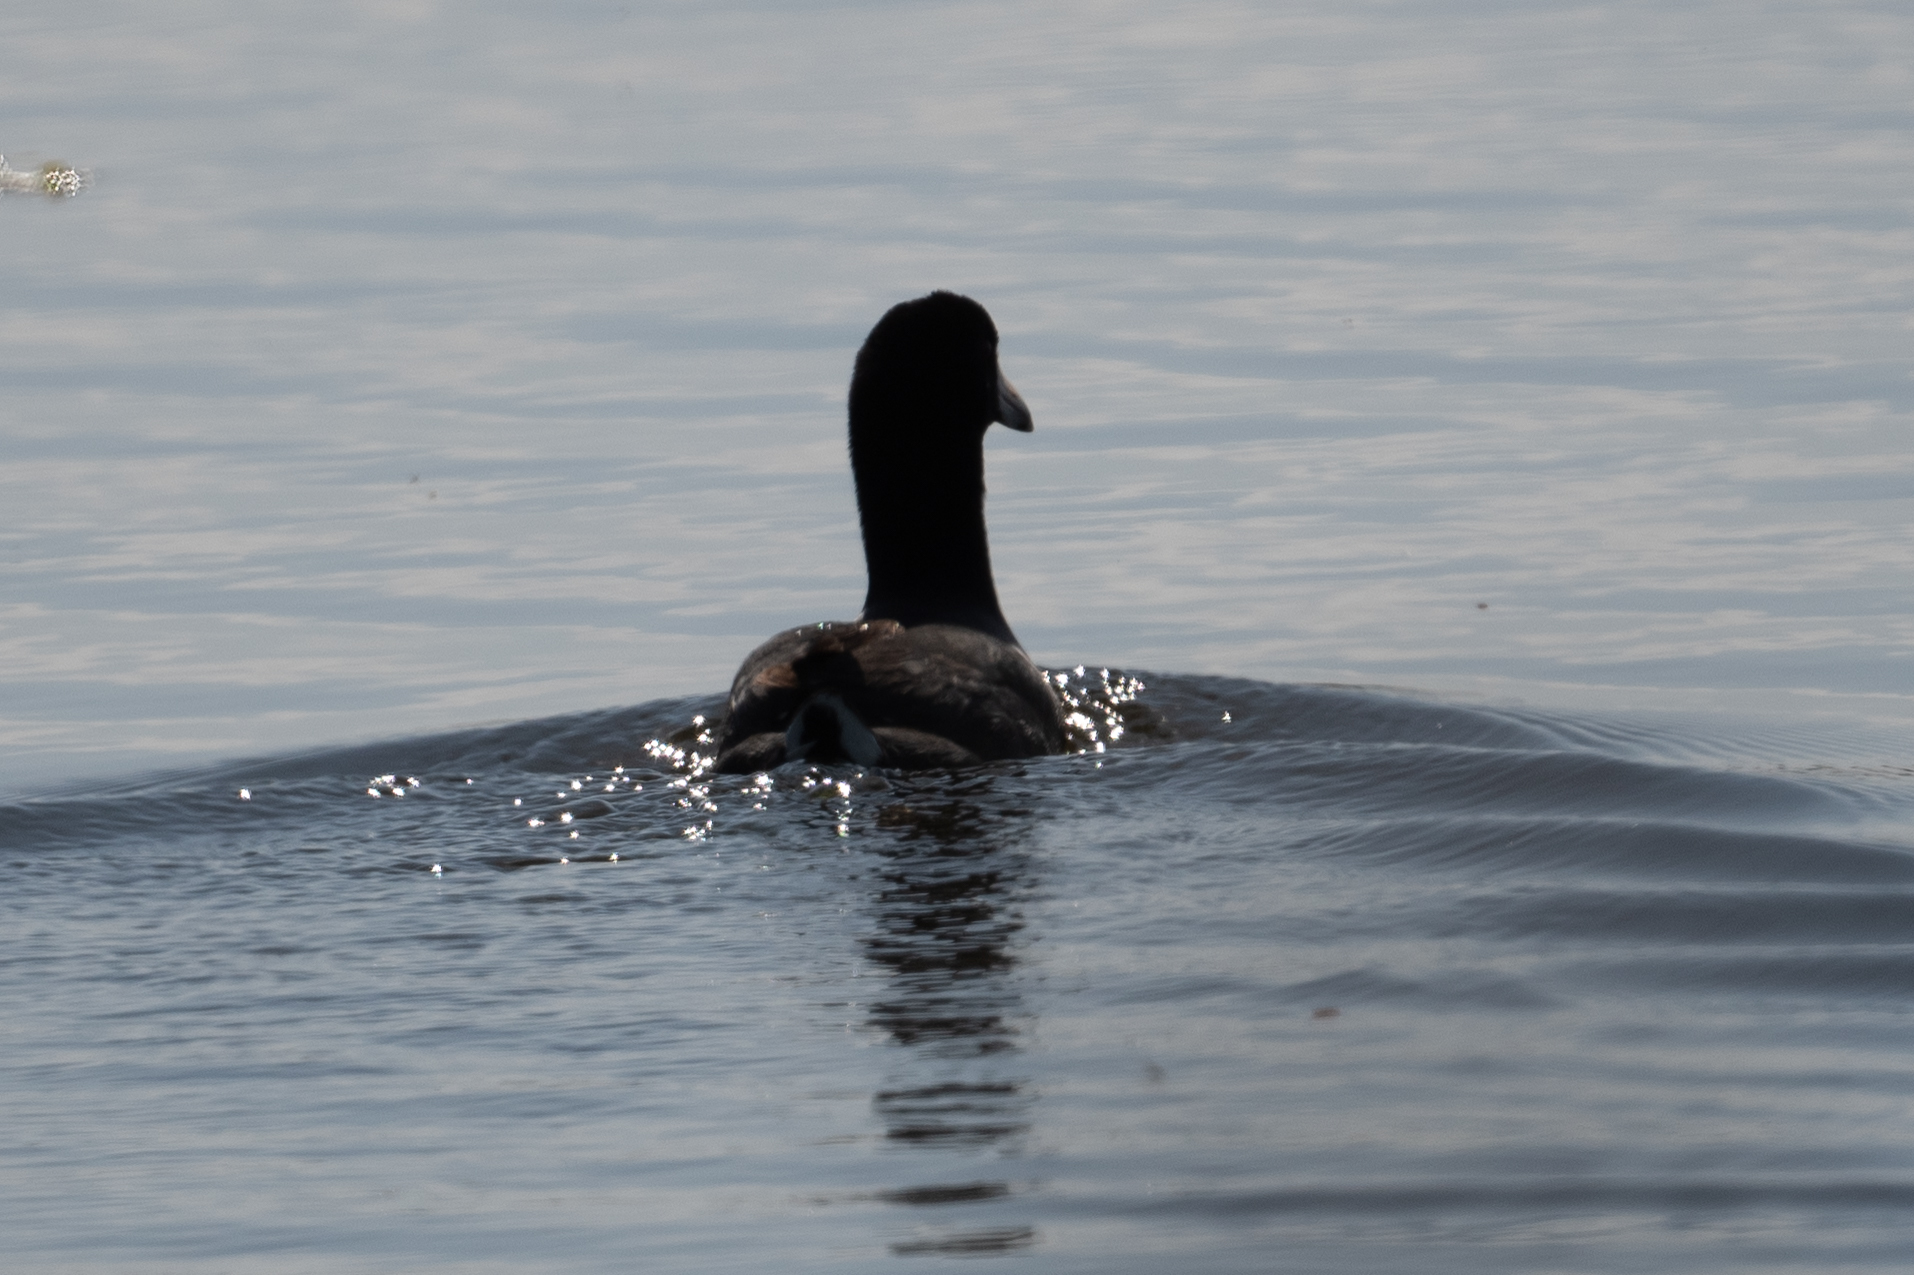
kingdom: Animalia
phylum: Chordata
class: Aves
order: Gruiformes
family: Rallidae
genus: Fulica
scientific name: Fulica americana
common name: American coot
